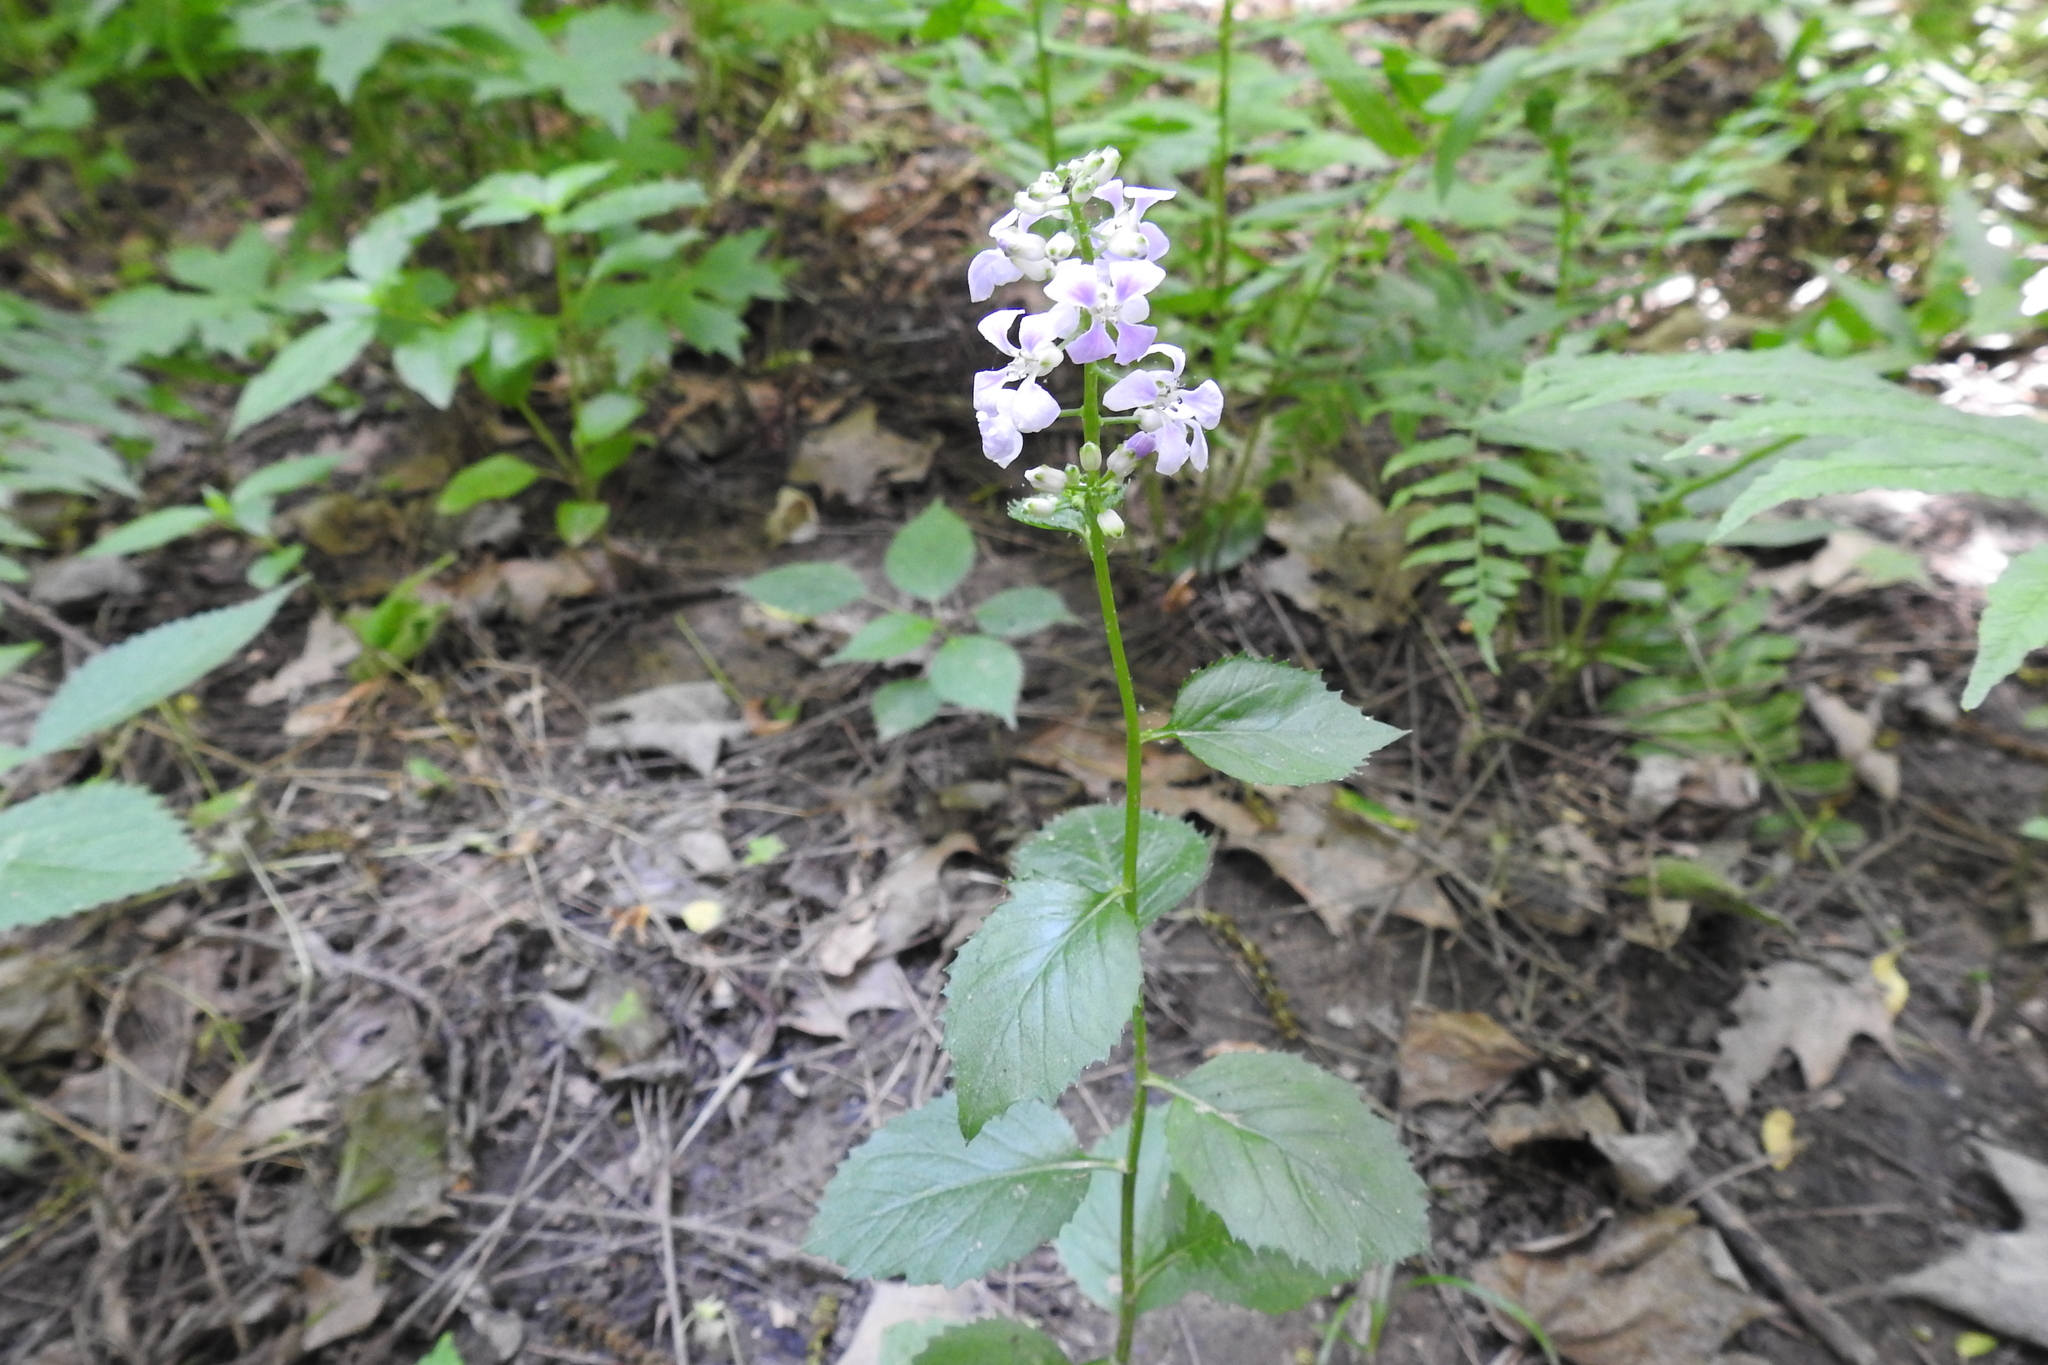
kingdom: Plantae
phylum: Tracheophyta
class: Magnoliopsida
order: Brassicales
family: Brassicaceae
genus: Iodanthus
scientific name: Iodanthus pinnatifidus
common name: Violet rocket
